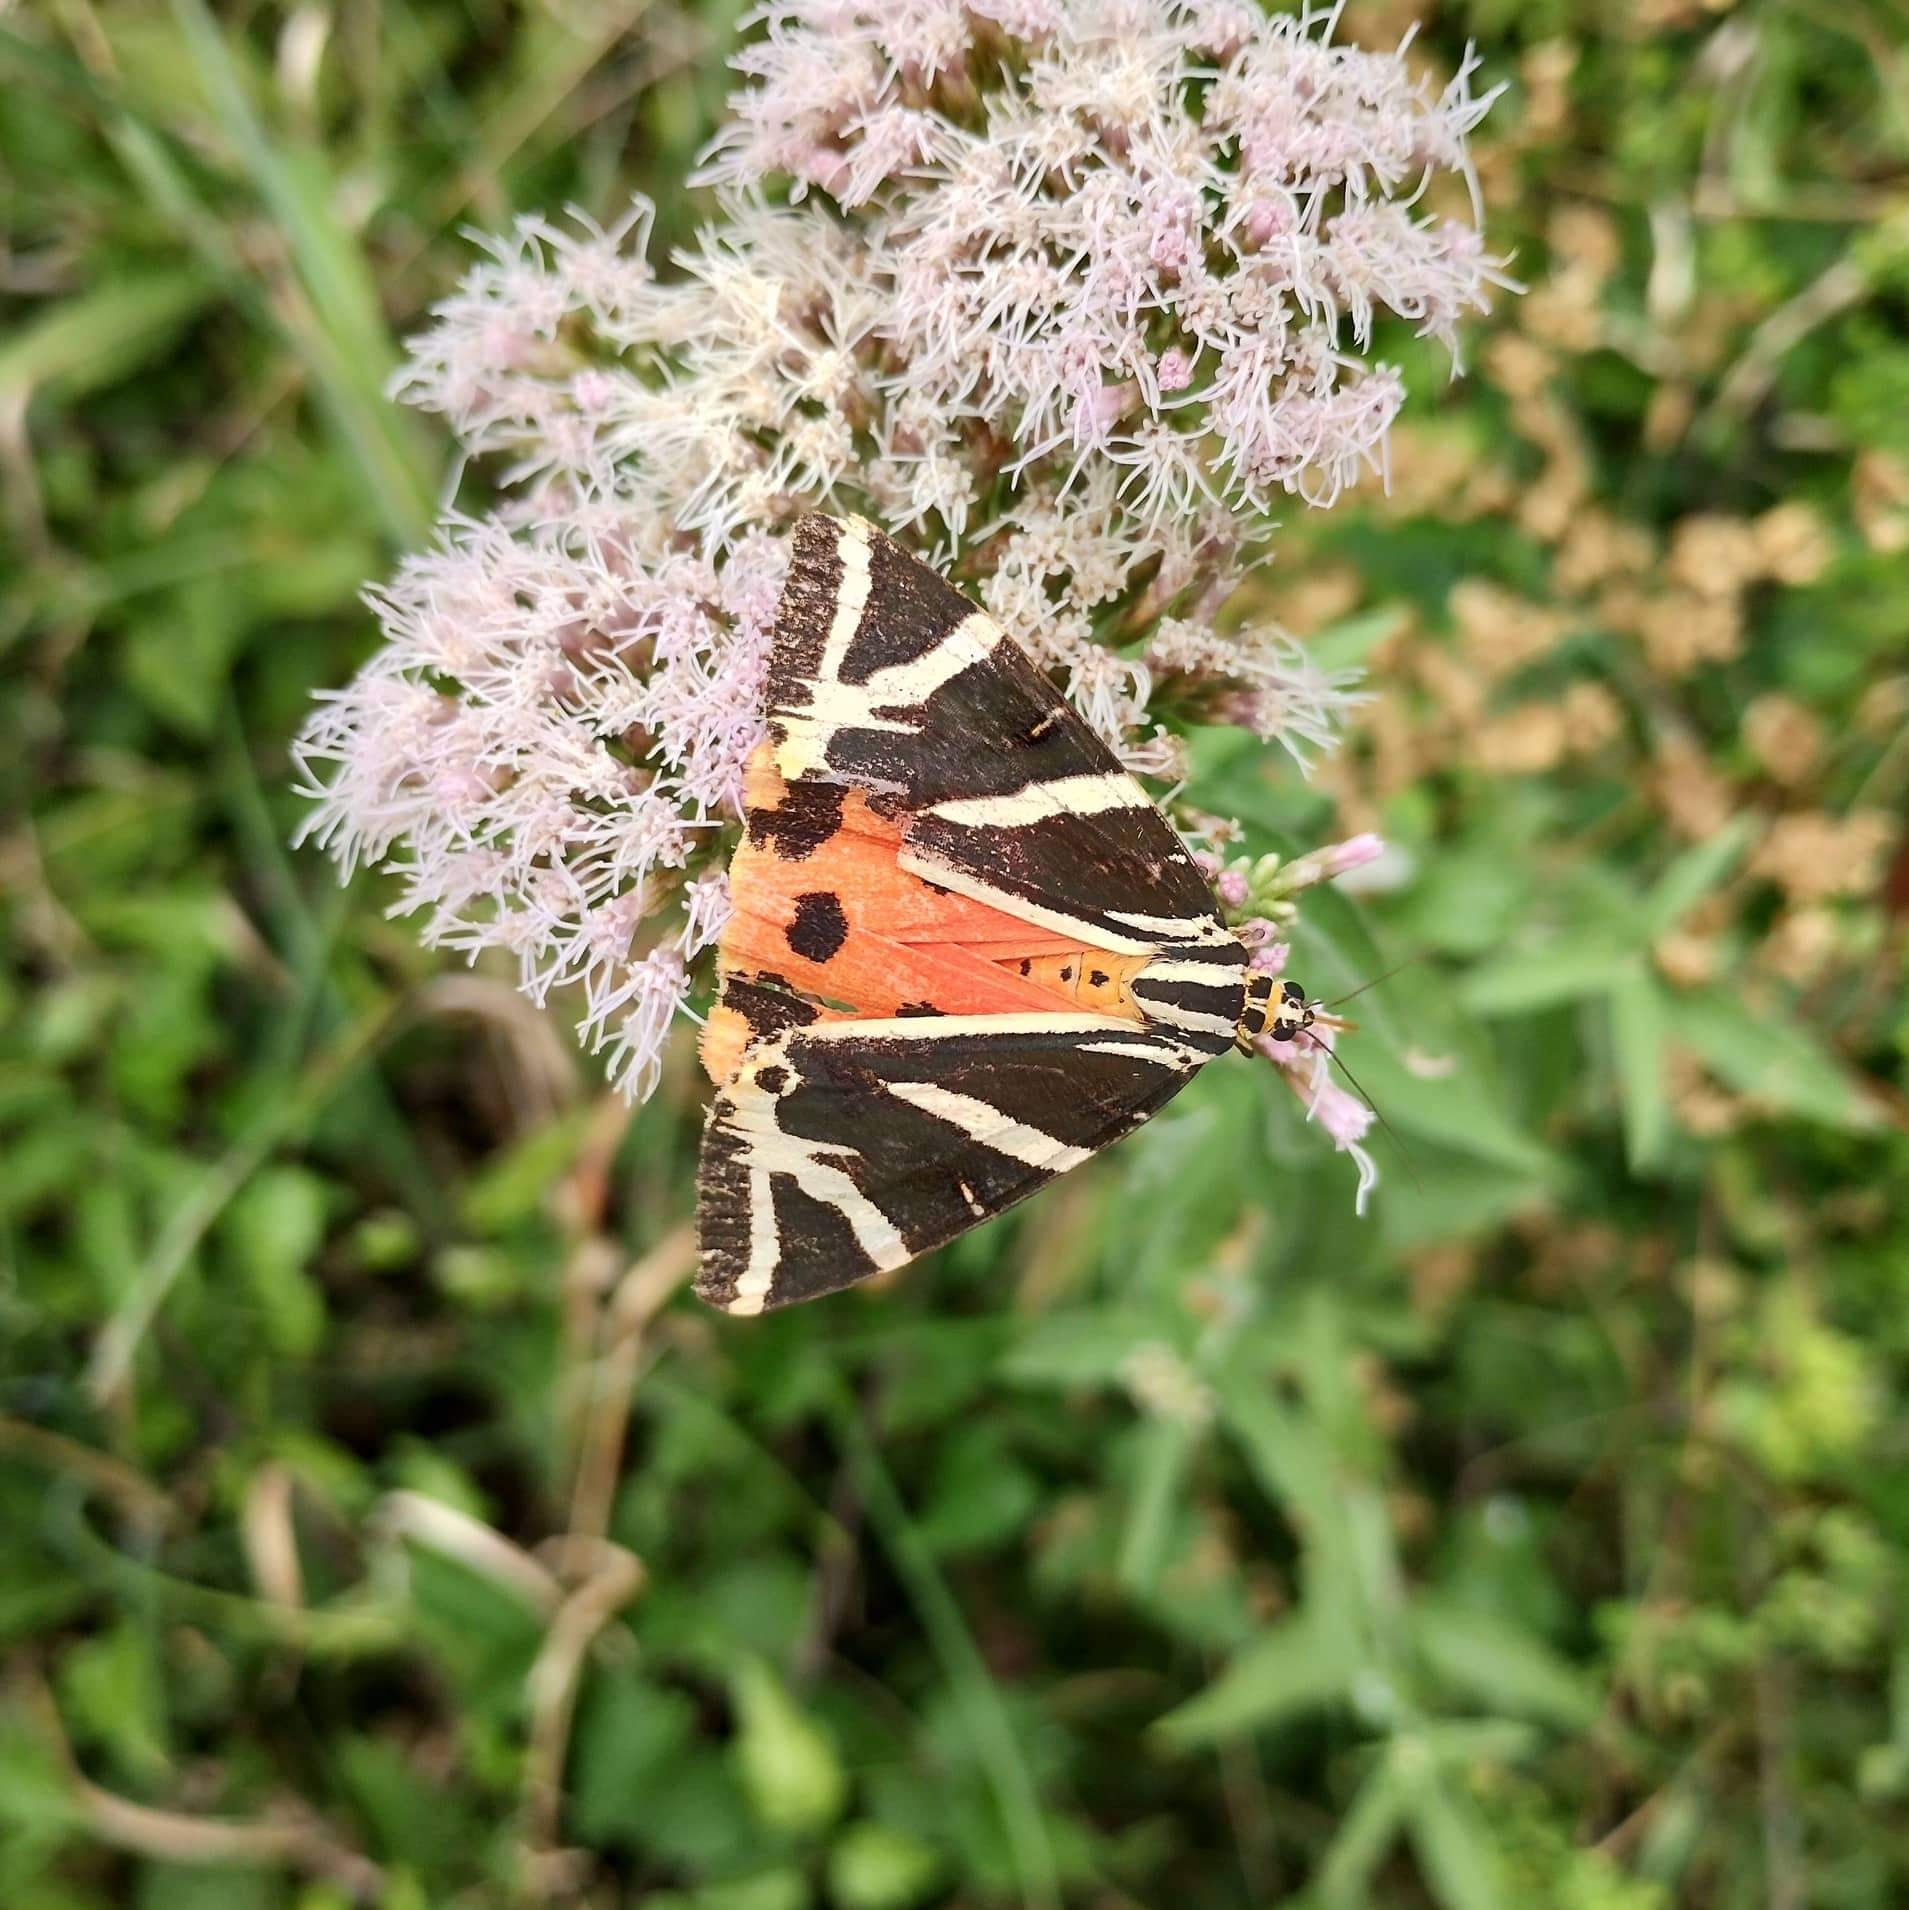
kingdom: Animalia
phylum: Arthropoda
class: Insecta
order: Lepidoptera
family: Erebidae
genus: Euplagia
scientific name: Euplagia quadripunctaria
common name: Jersey tiger
